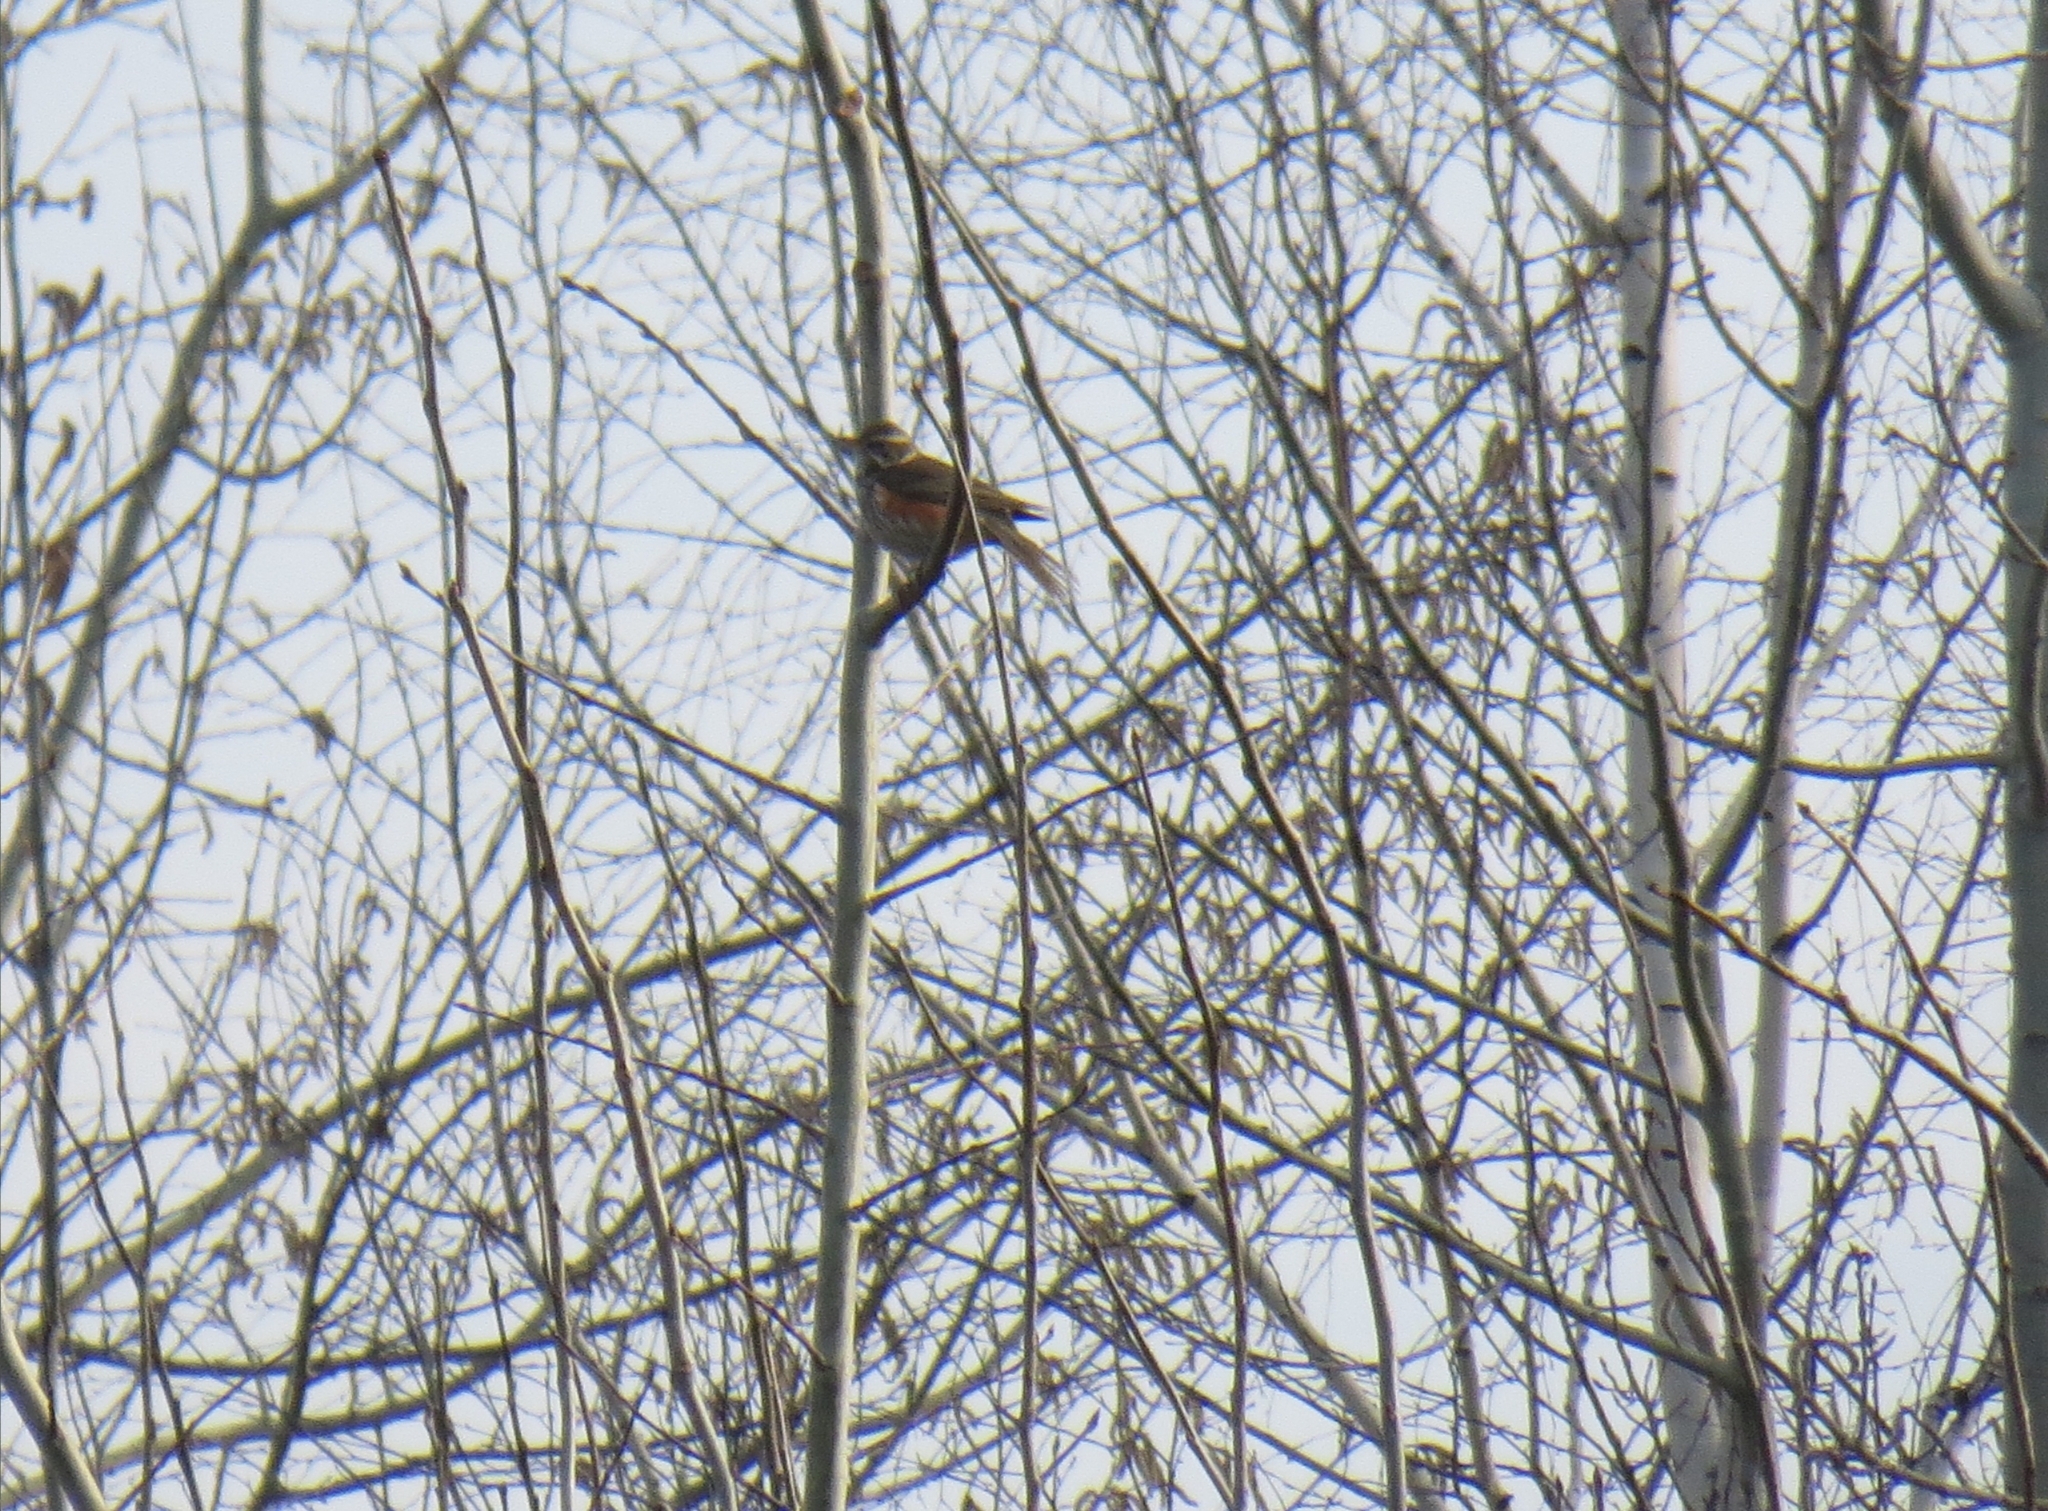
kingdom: Animalia
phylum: Chordata
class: Aves
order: Passeriformes
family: Turdidae
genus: Turdus
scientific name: Turdus iliacus
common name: Redwing
